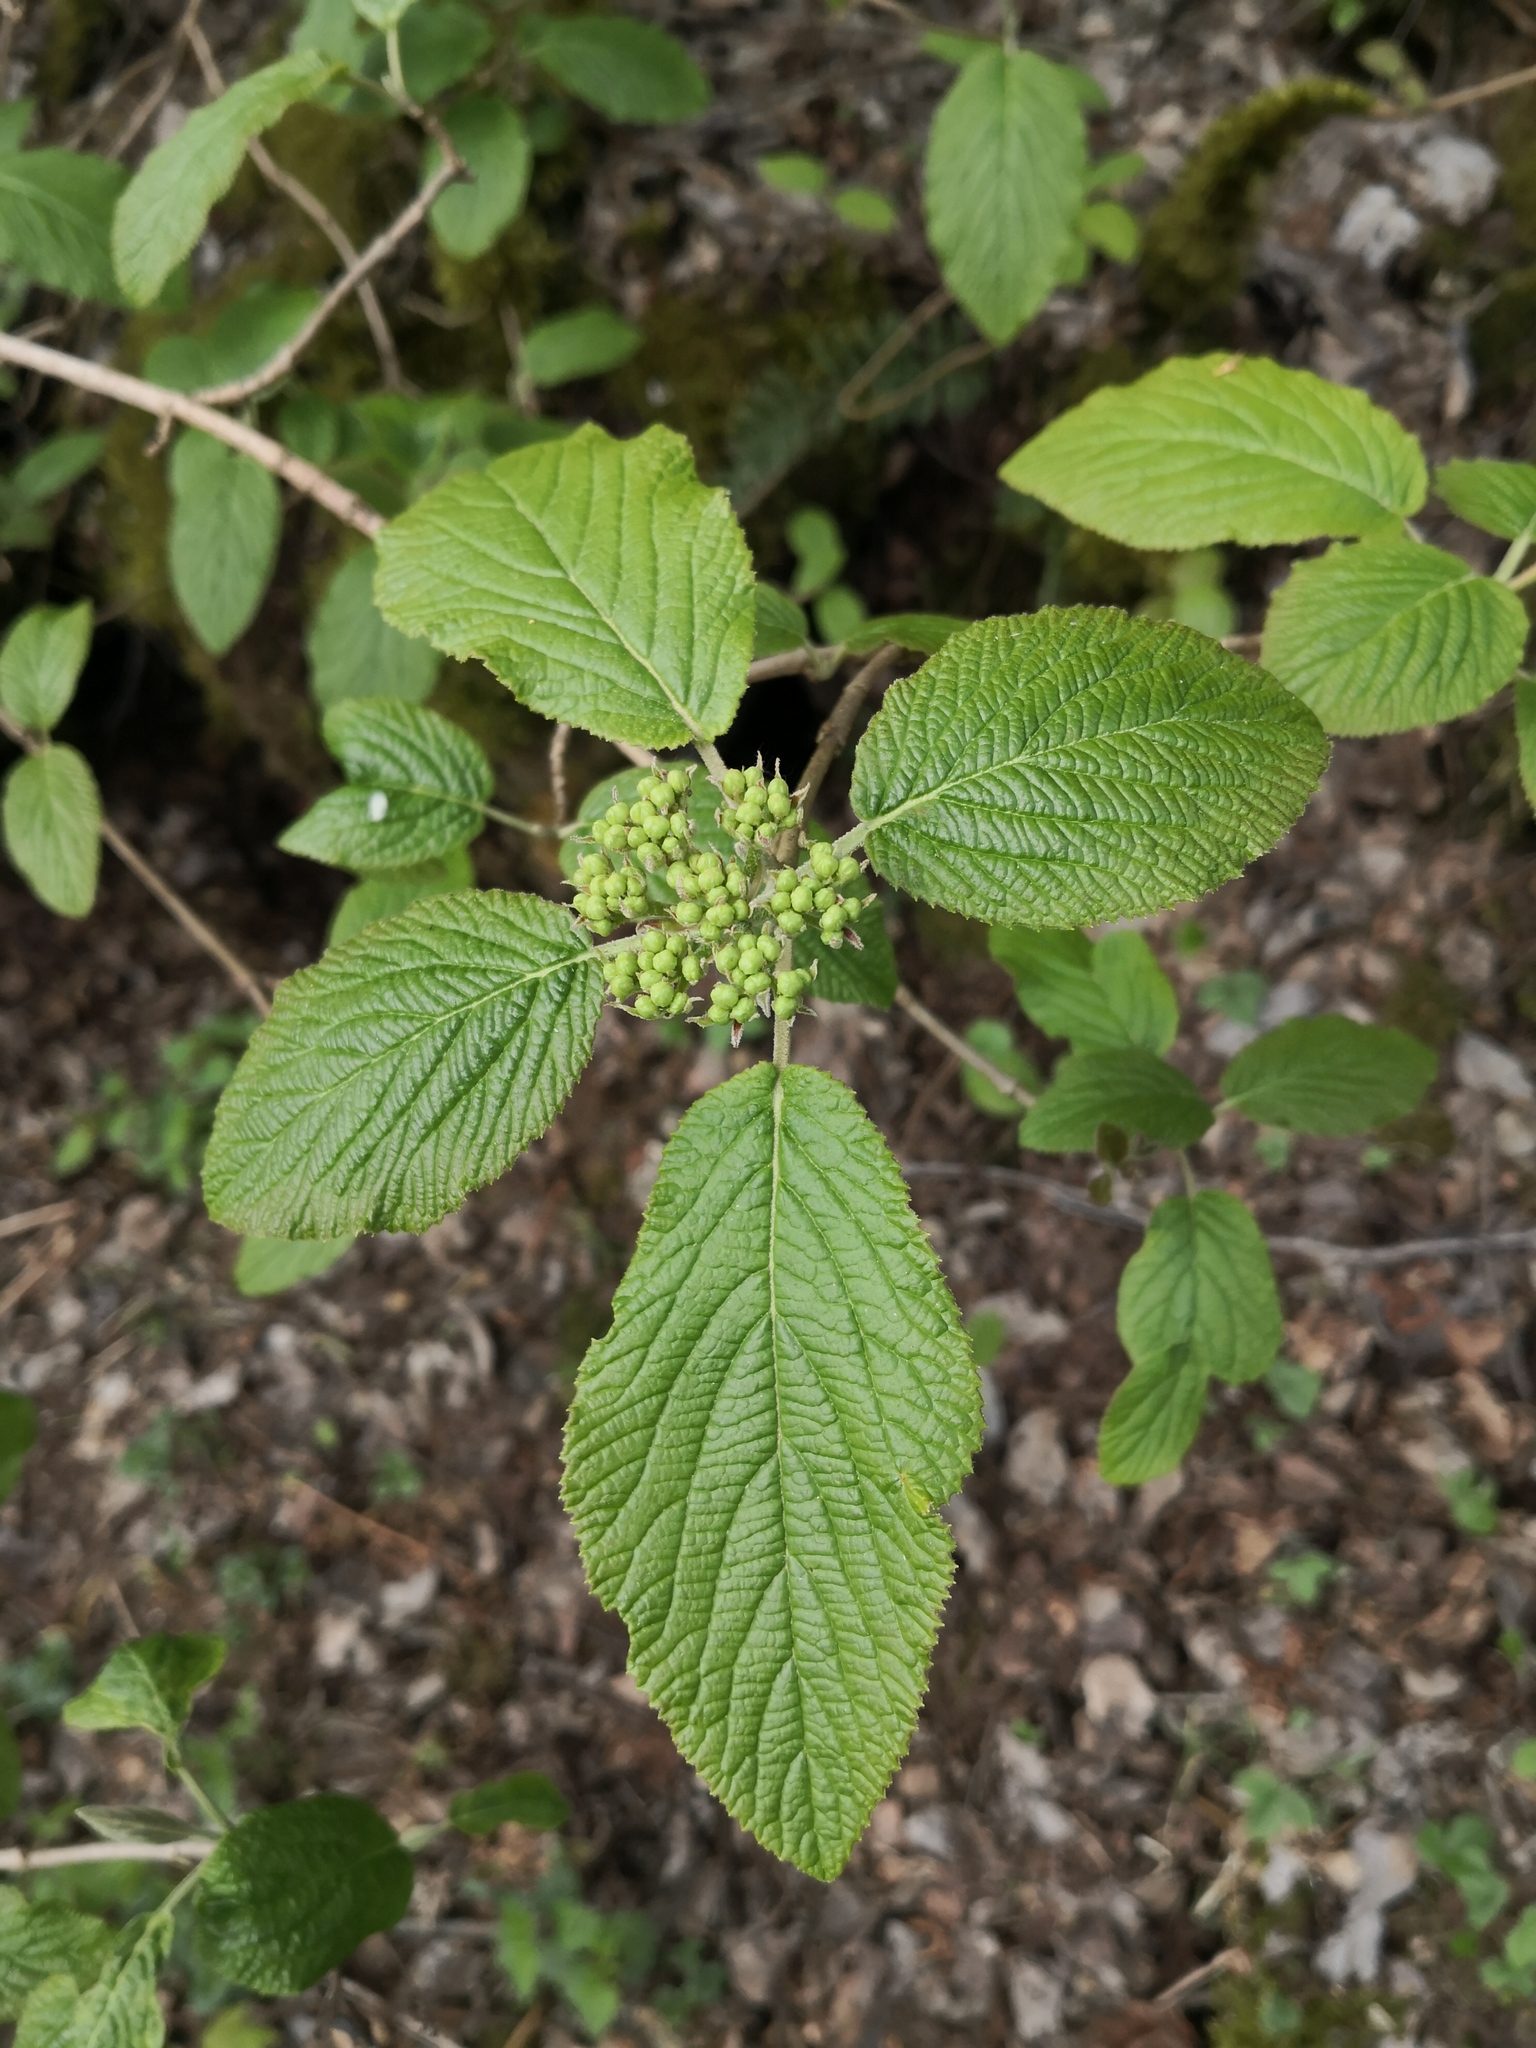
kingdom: Plantae
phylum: Tracheophyta
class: Magnoliopsida
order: Dipsacales
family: Viburnaceae
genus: Viburnum
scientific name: Viburnum lantana
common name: Wayfaring tree
